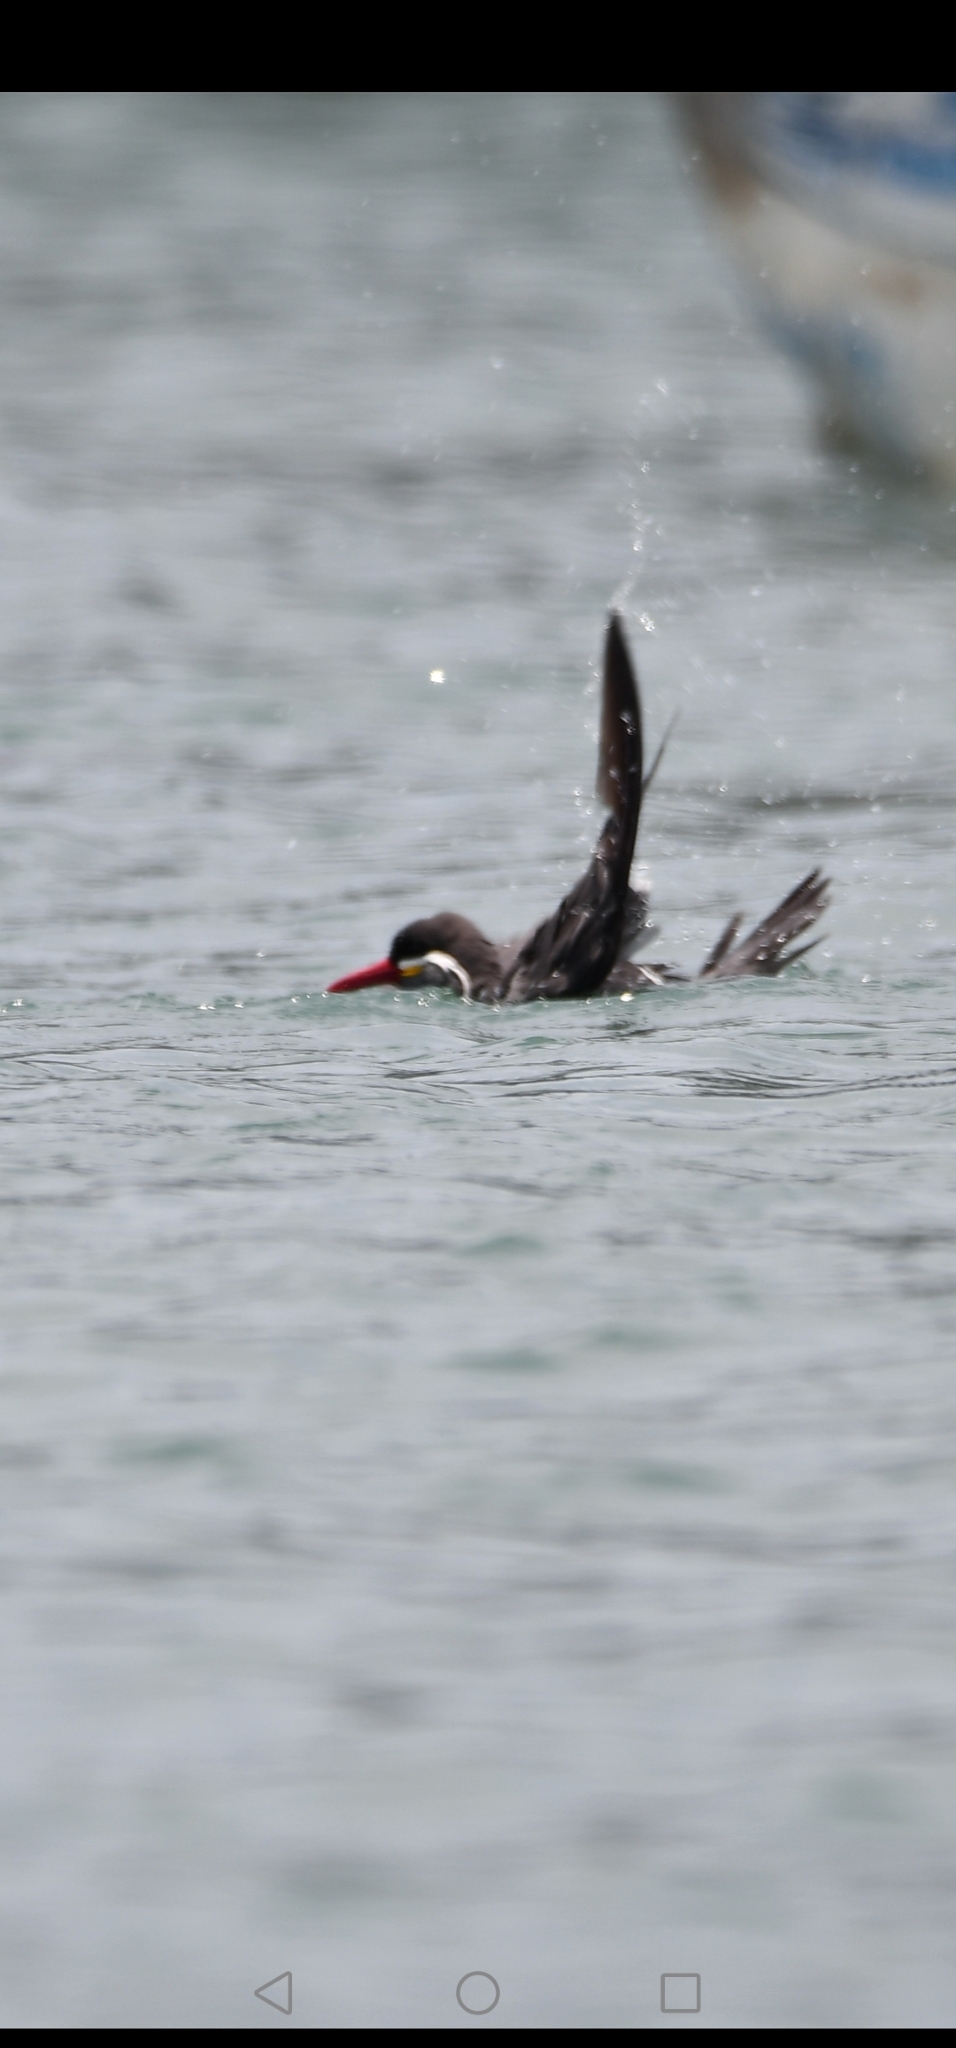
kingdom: Animalia
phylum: Chordata
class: Aves
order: Charadriiformes
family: Laridae
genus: Larosterna
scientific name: Larosterna inca
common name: Inca tern
